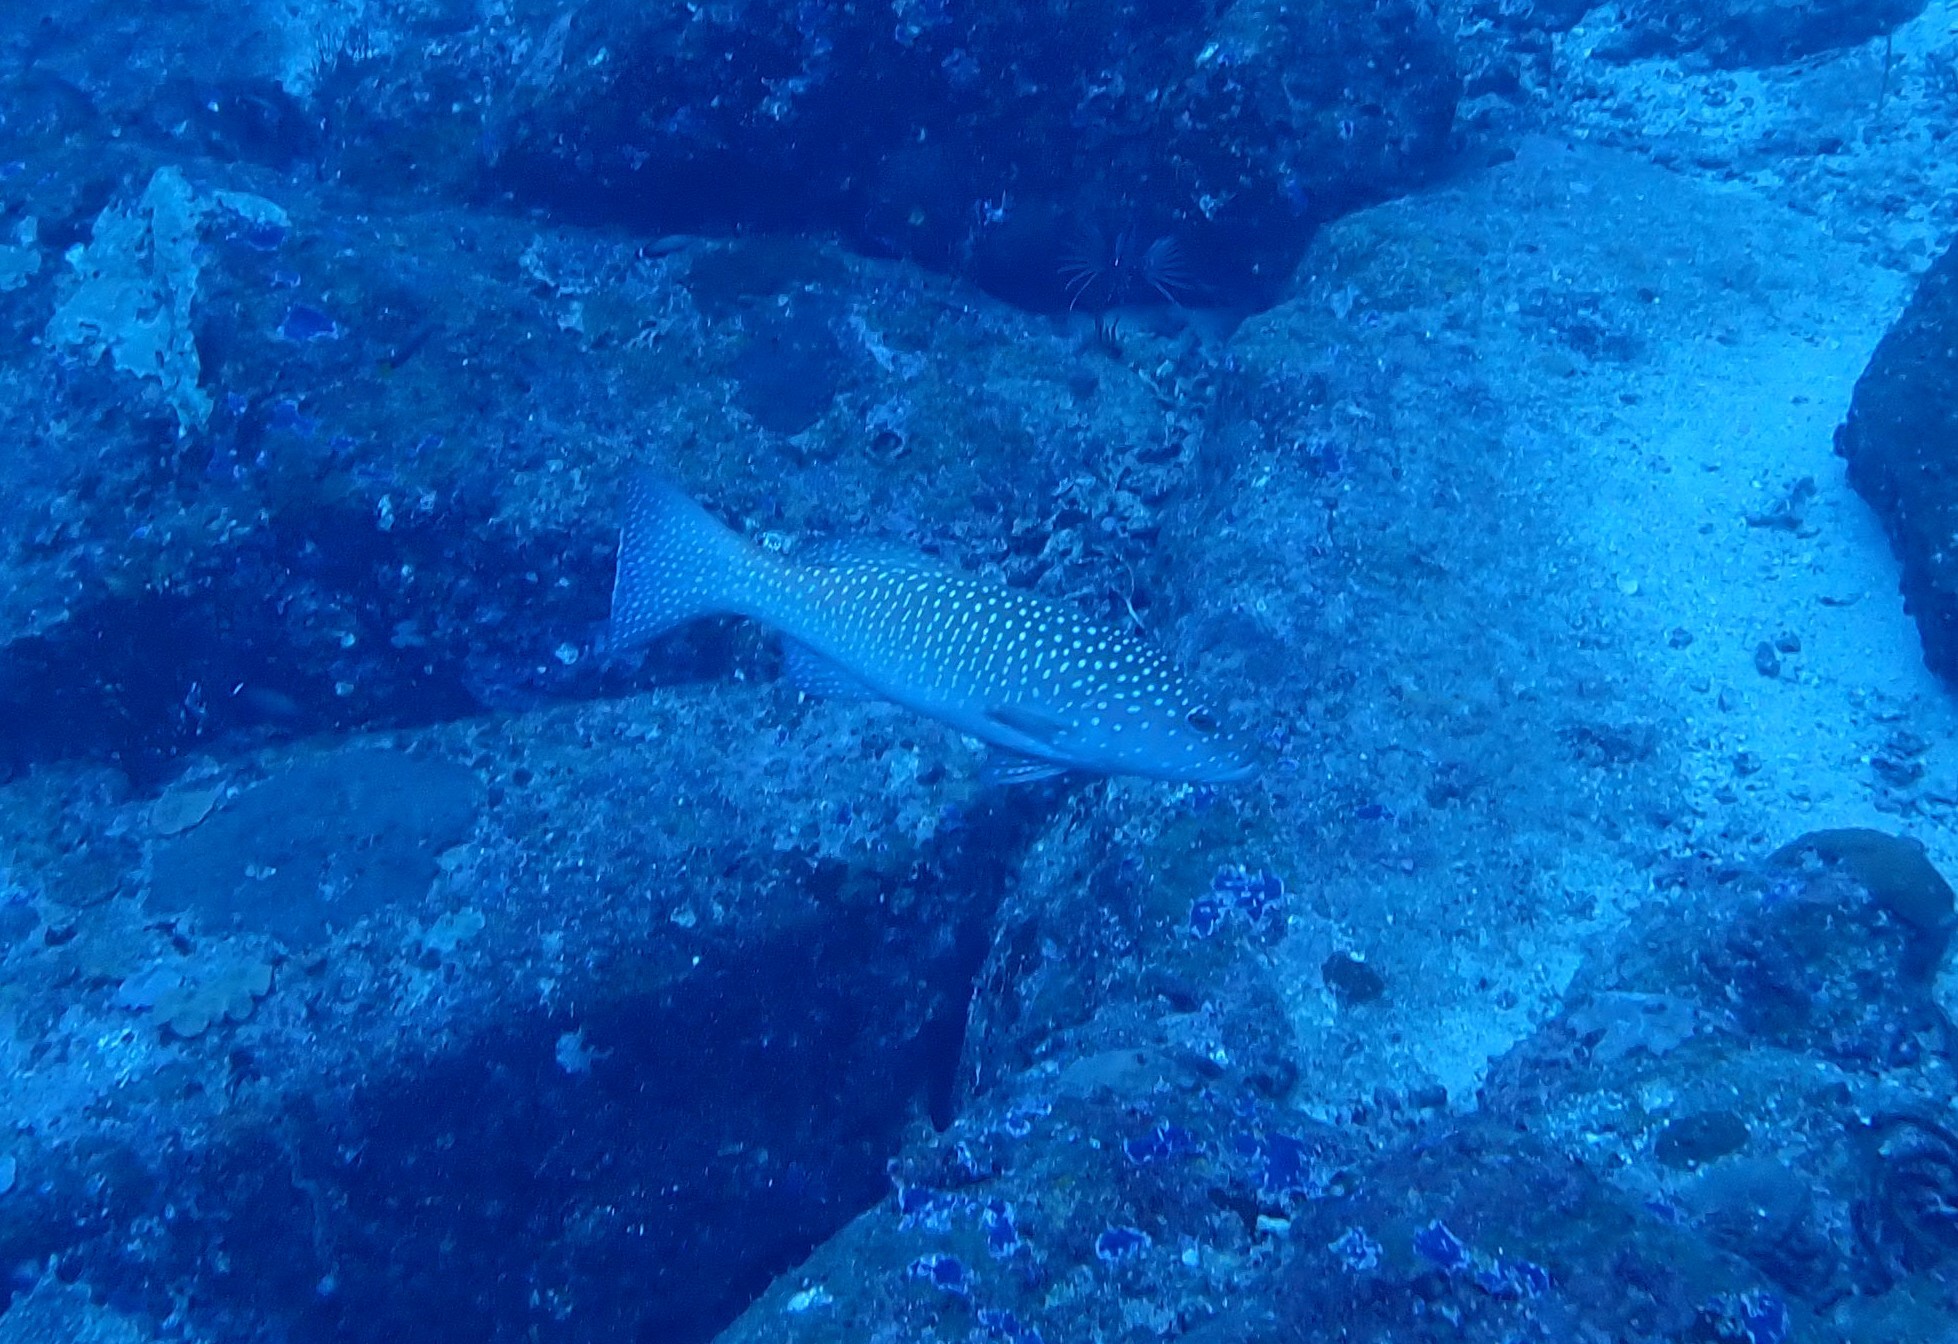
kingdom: Animalia
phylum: Chordata
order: Perciformes
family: Serranidae
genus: Plectropomus
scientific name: Plectropomus maculatus
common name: Spotted coralgrouper
